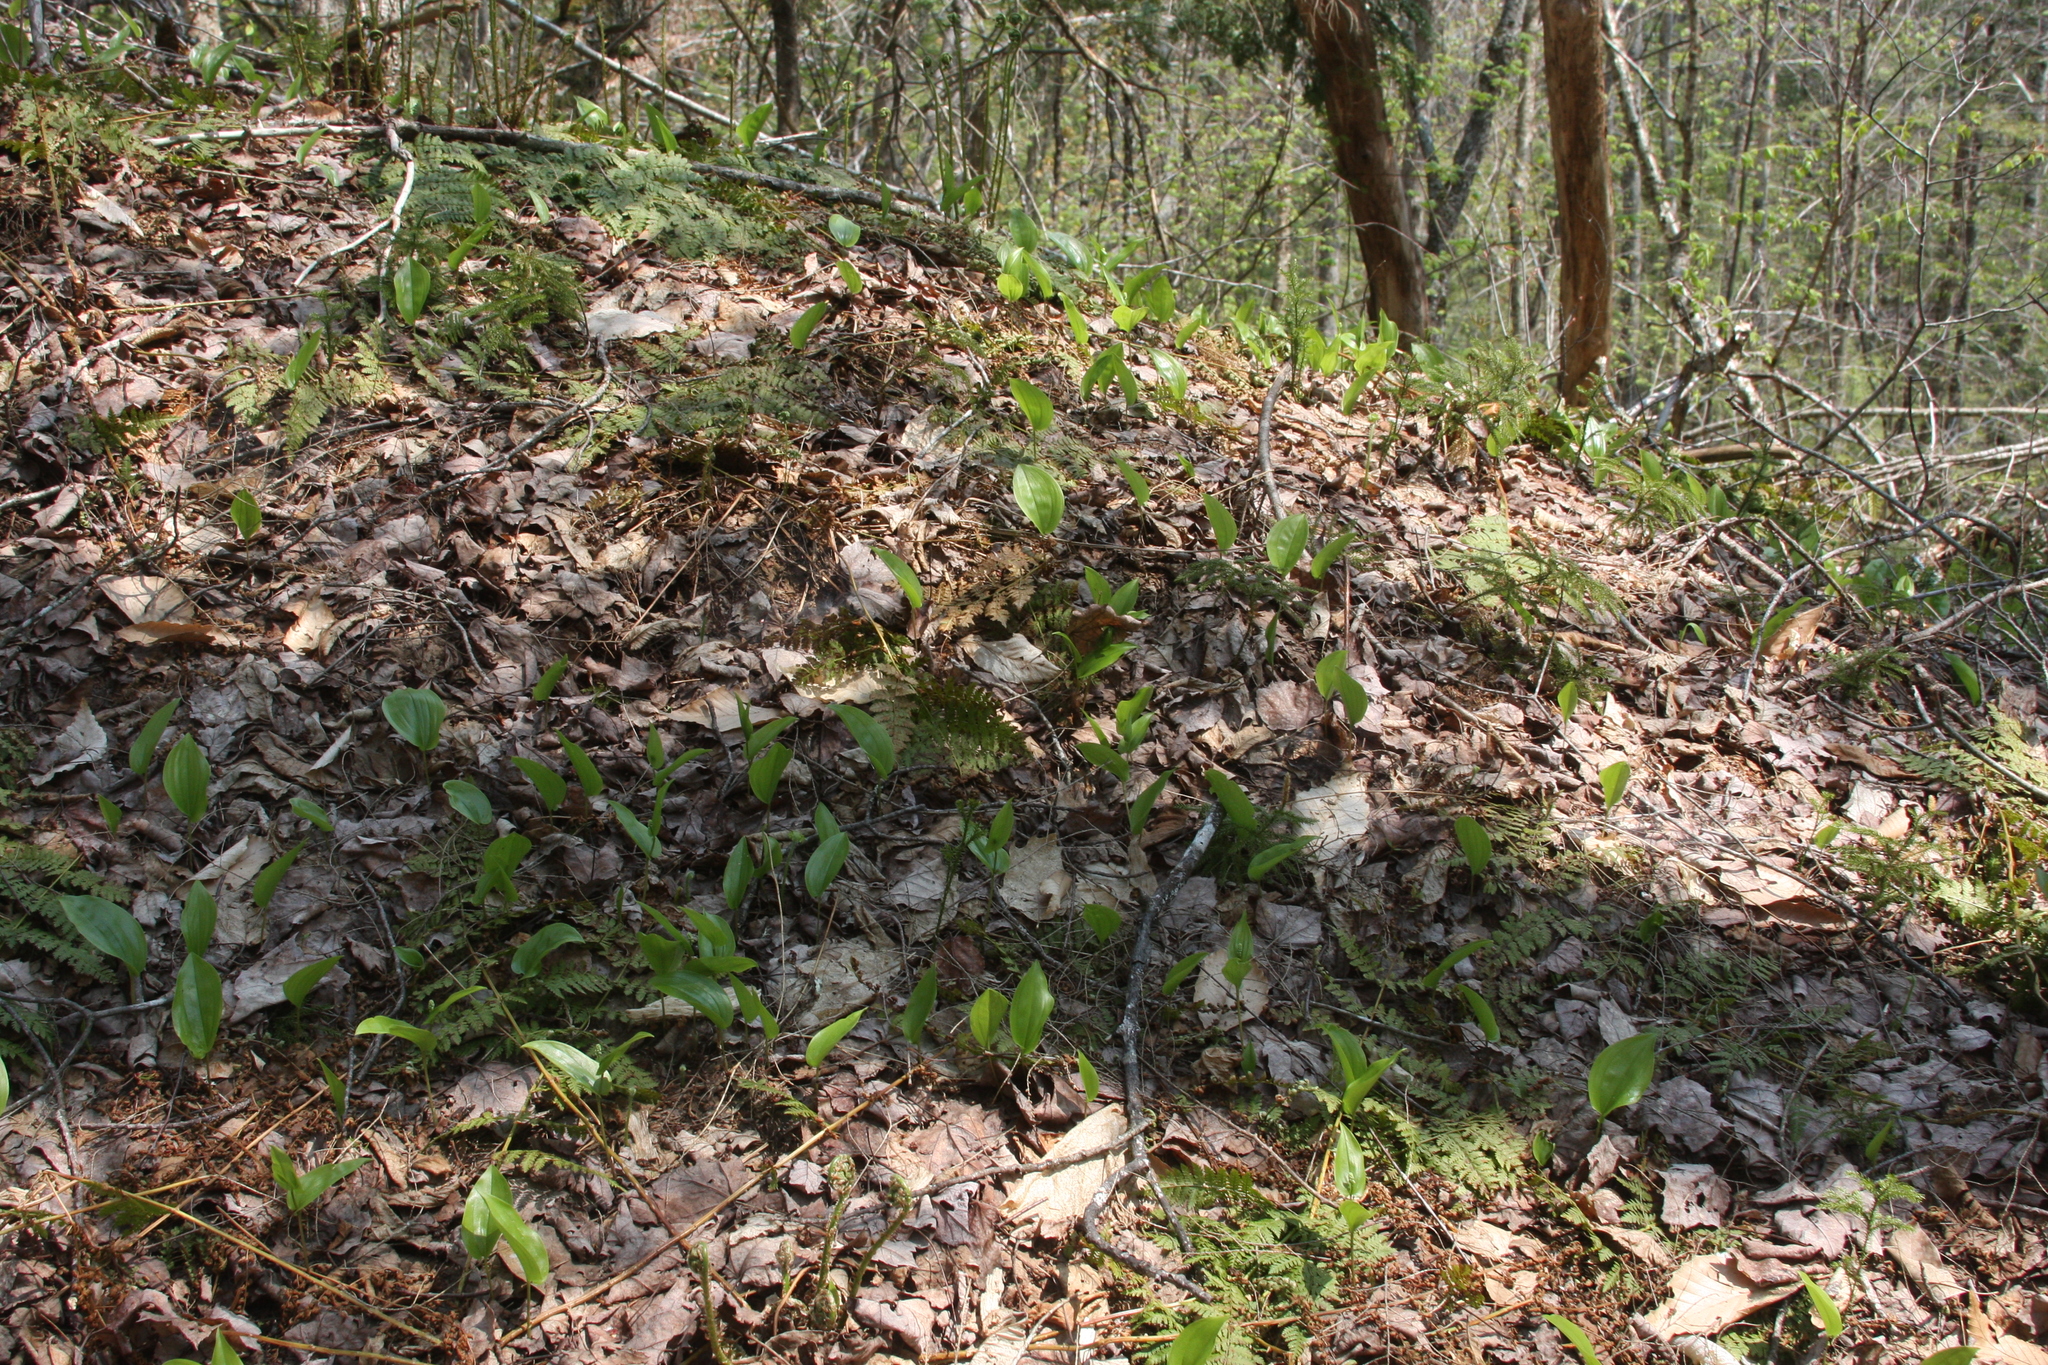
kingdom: Plantae
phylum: Tracheophyta
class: Liliopsida
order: Asparagales
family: Asparagaceae
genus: Maianthemum
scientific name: Maianthemum canadense
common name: False lily-of-the-valley
